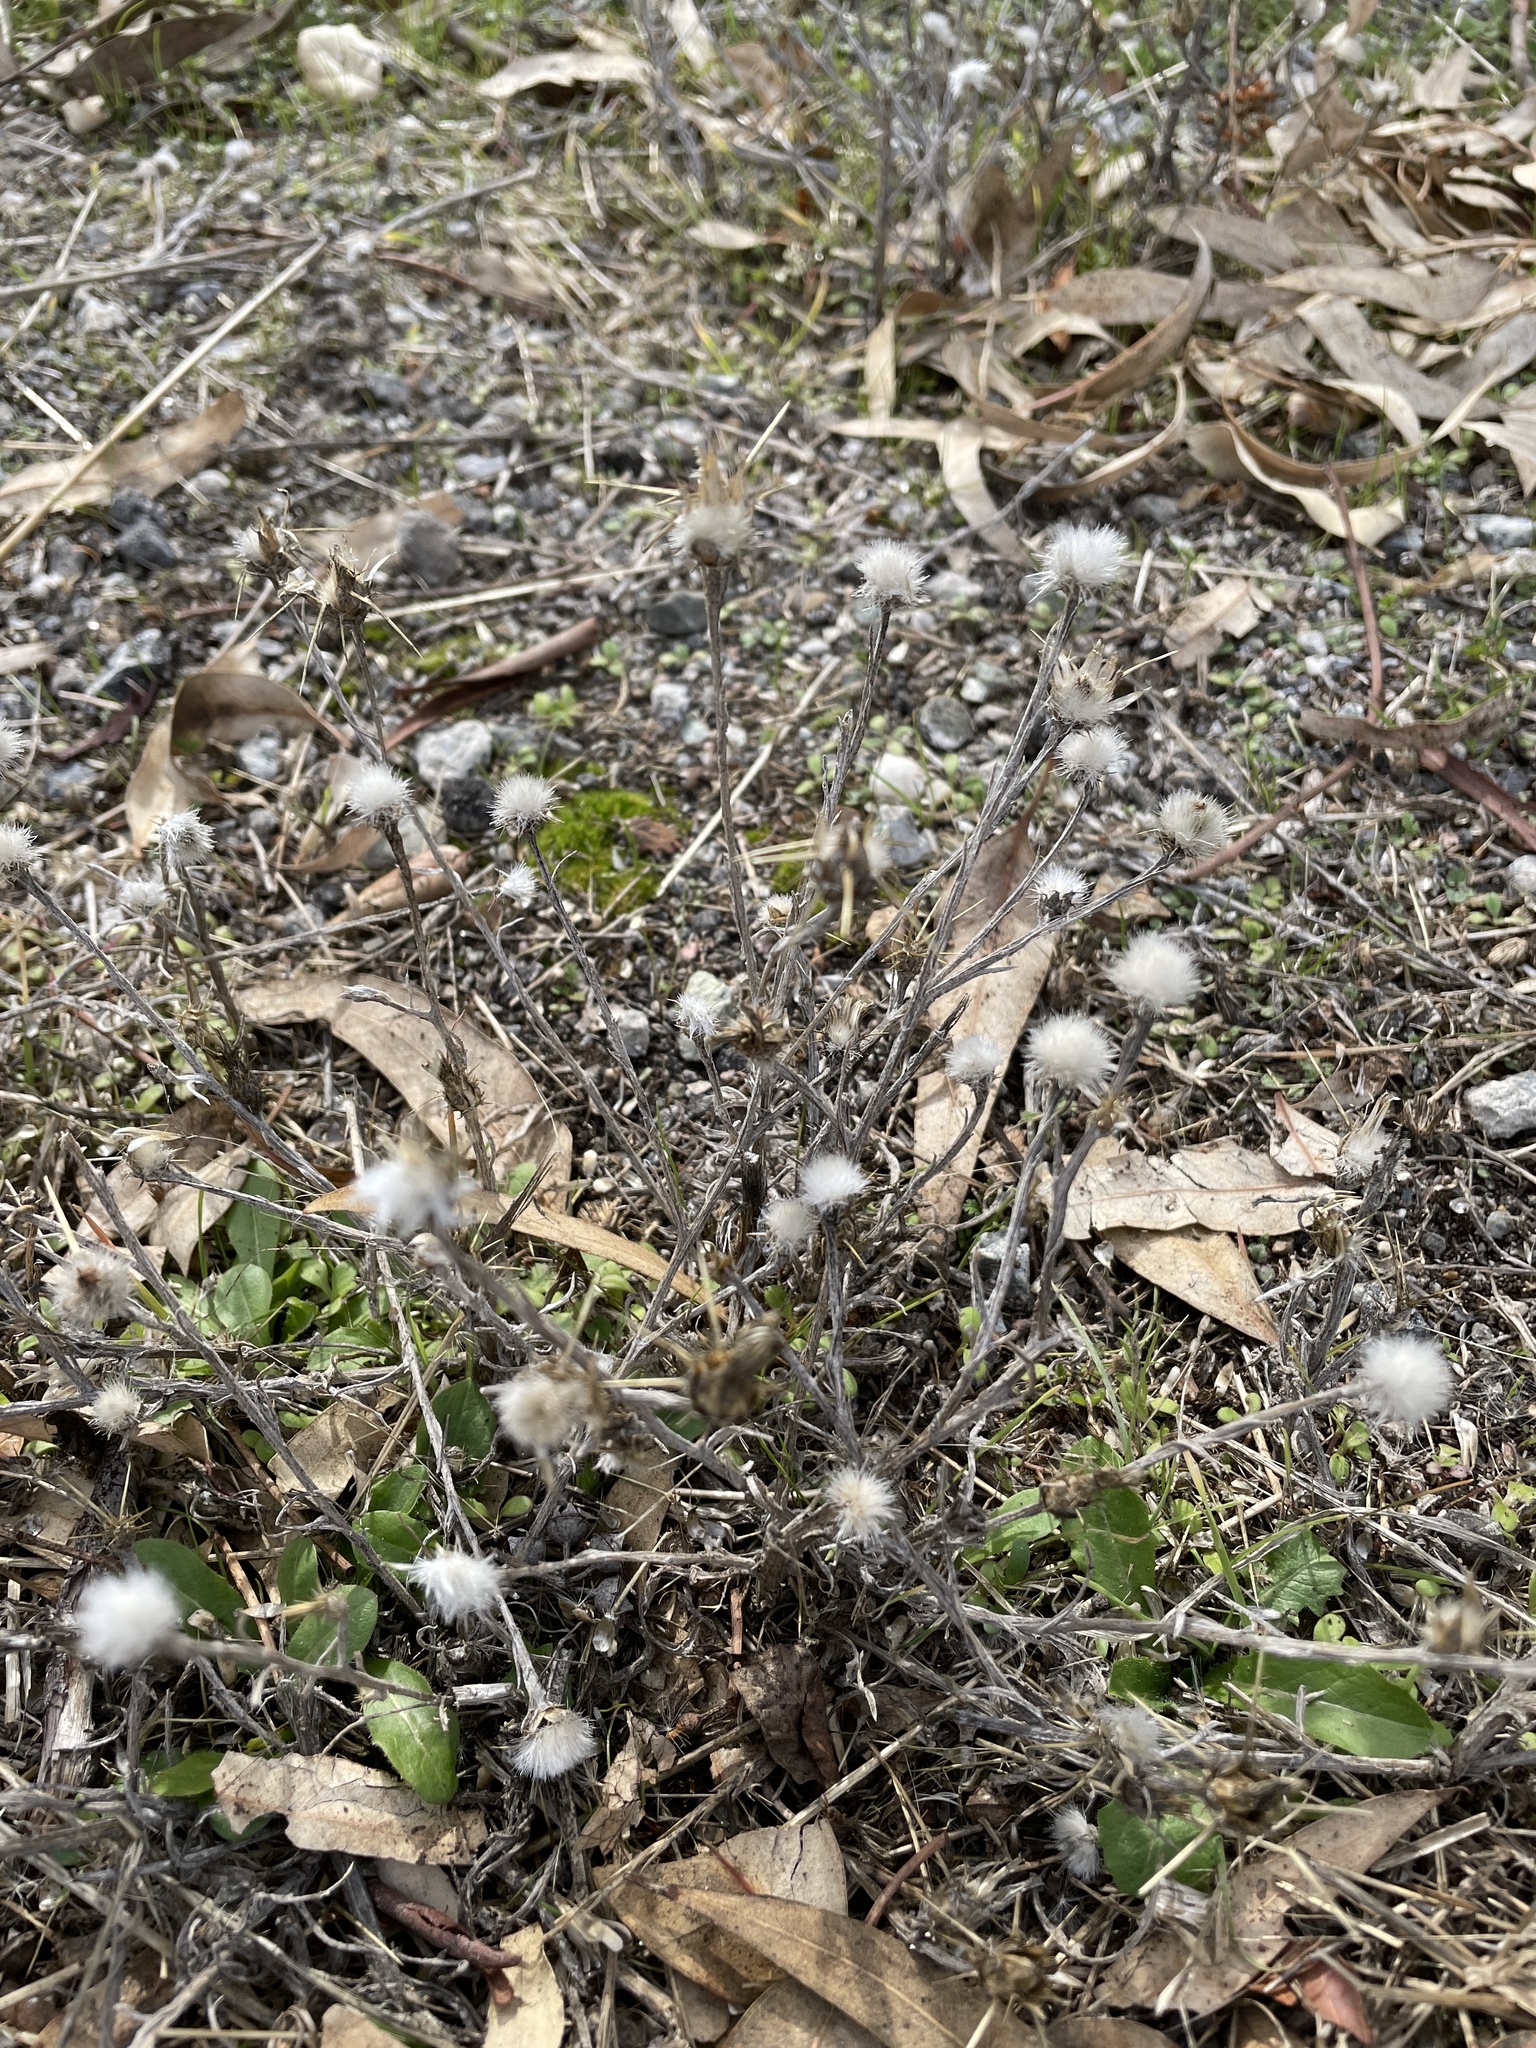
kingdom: Plantae
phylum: Tracheophyta
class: Magnoliopsida
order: Asterales
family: Asteraceae
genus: Centaurea
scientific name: Centaurea solstitialis
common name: Yellow star-thistle
